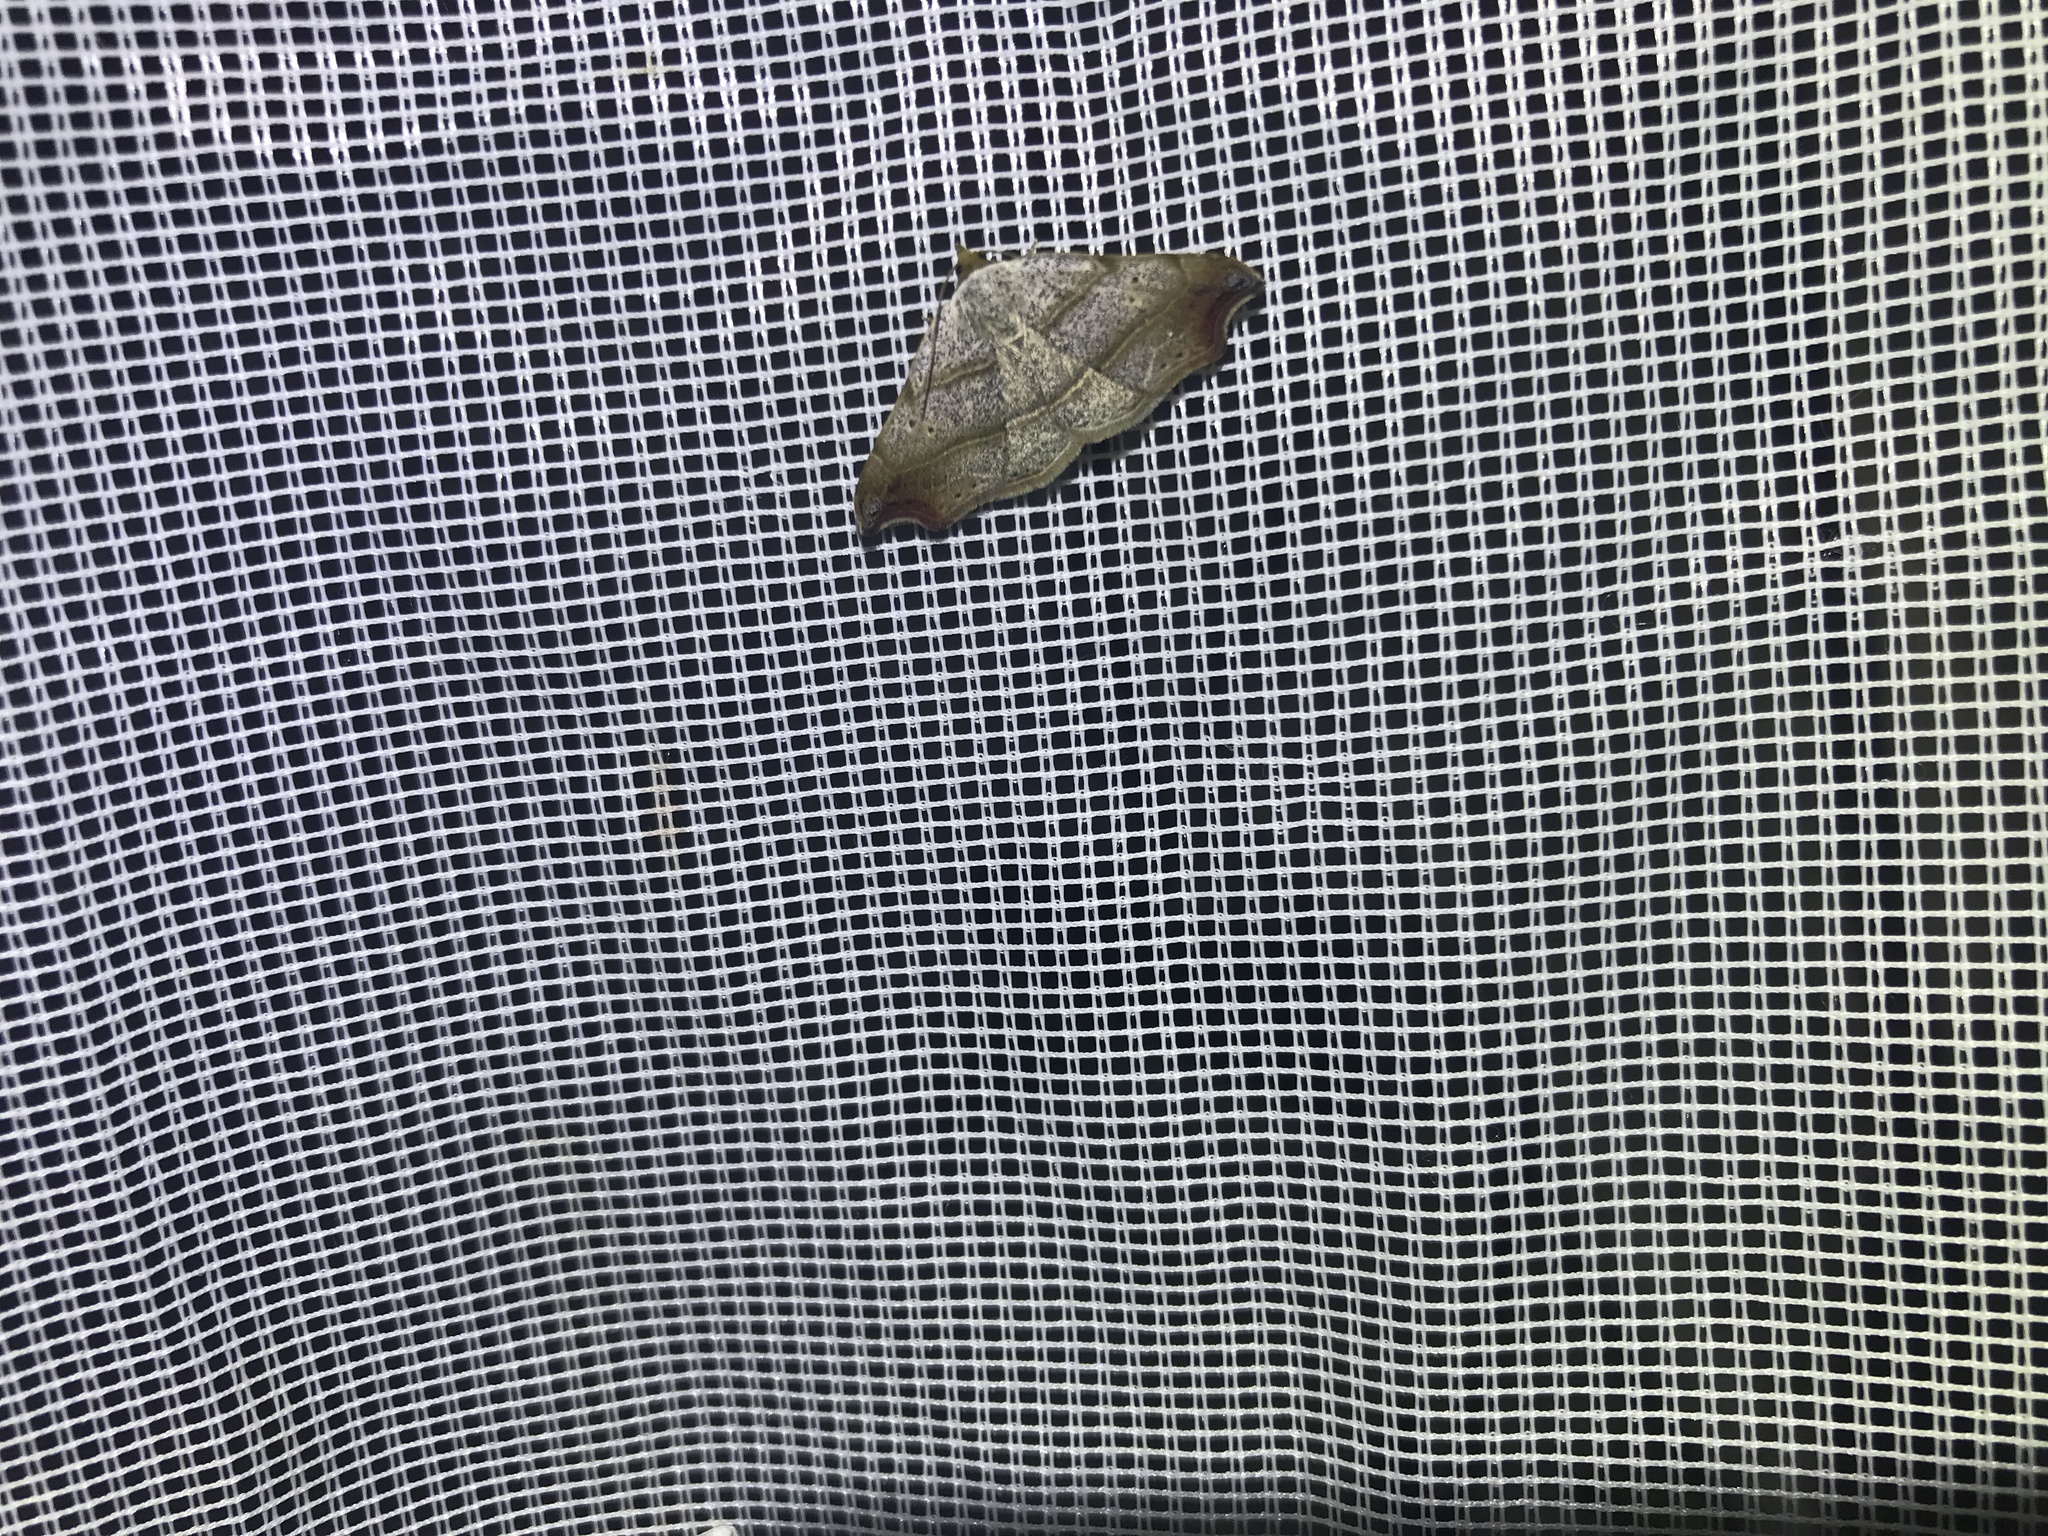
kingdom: Animalia
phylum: Arthropoda
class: Insecta
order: Lepidoptera
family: Erebidae
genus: Laspeyria
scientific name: Laspeyria flexula
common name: Beautiful hook-tip
